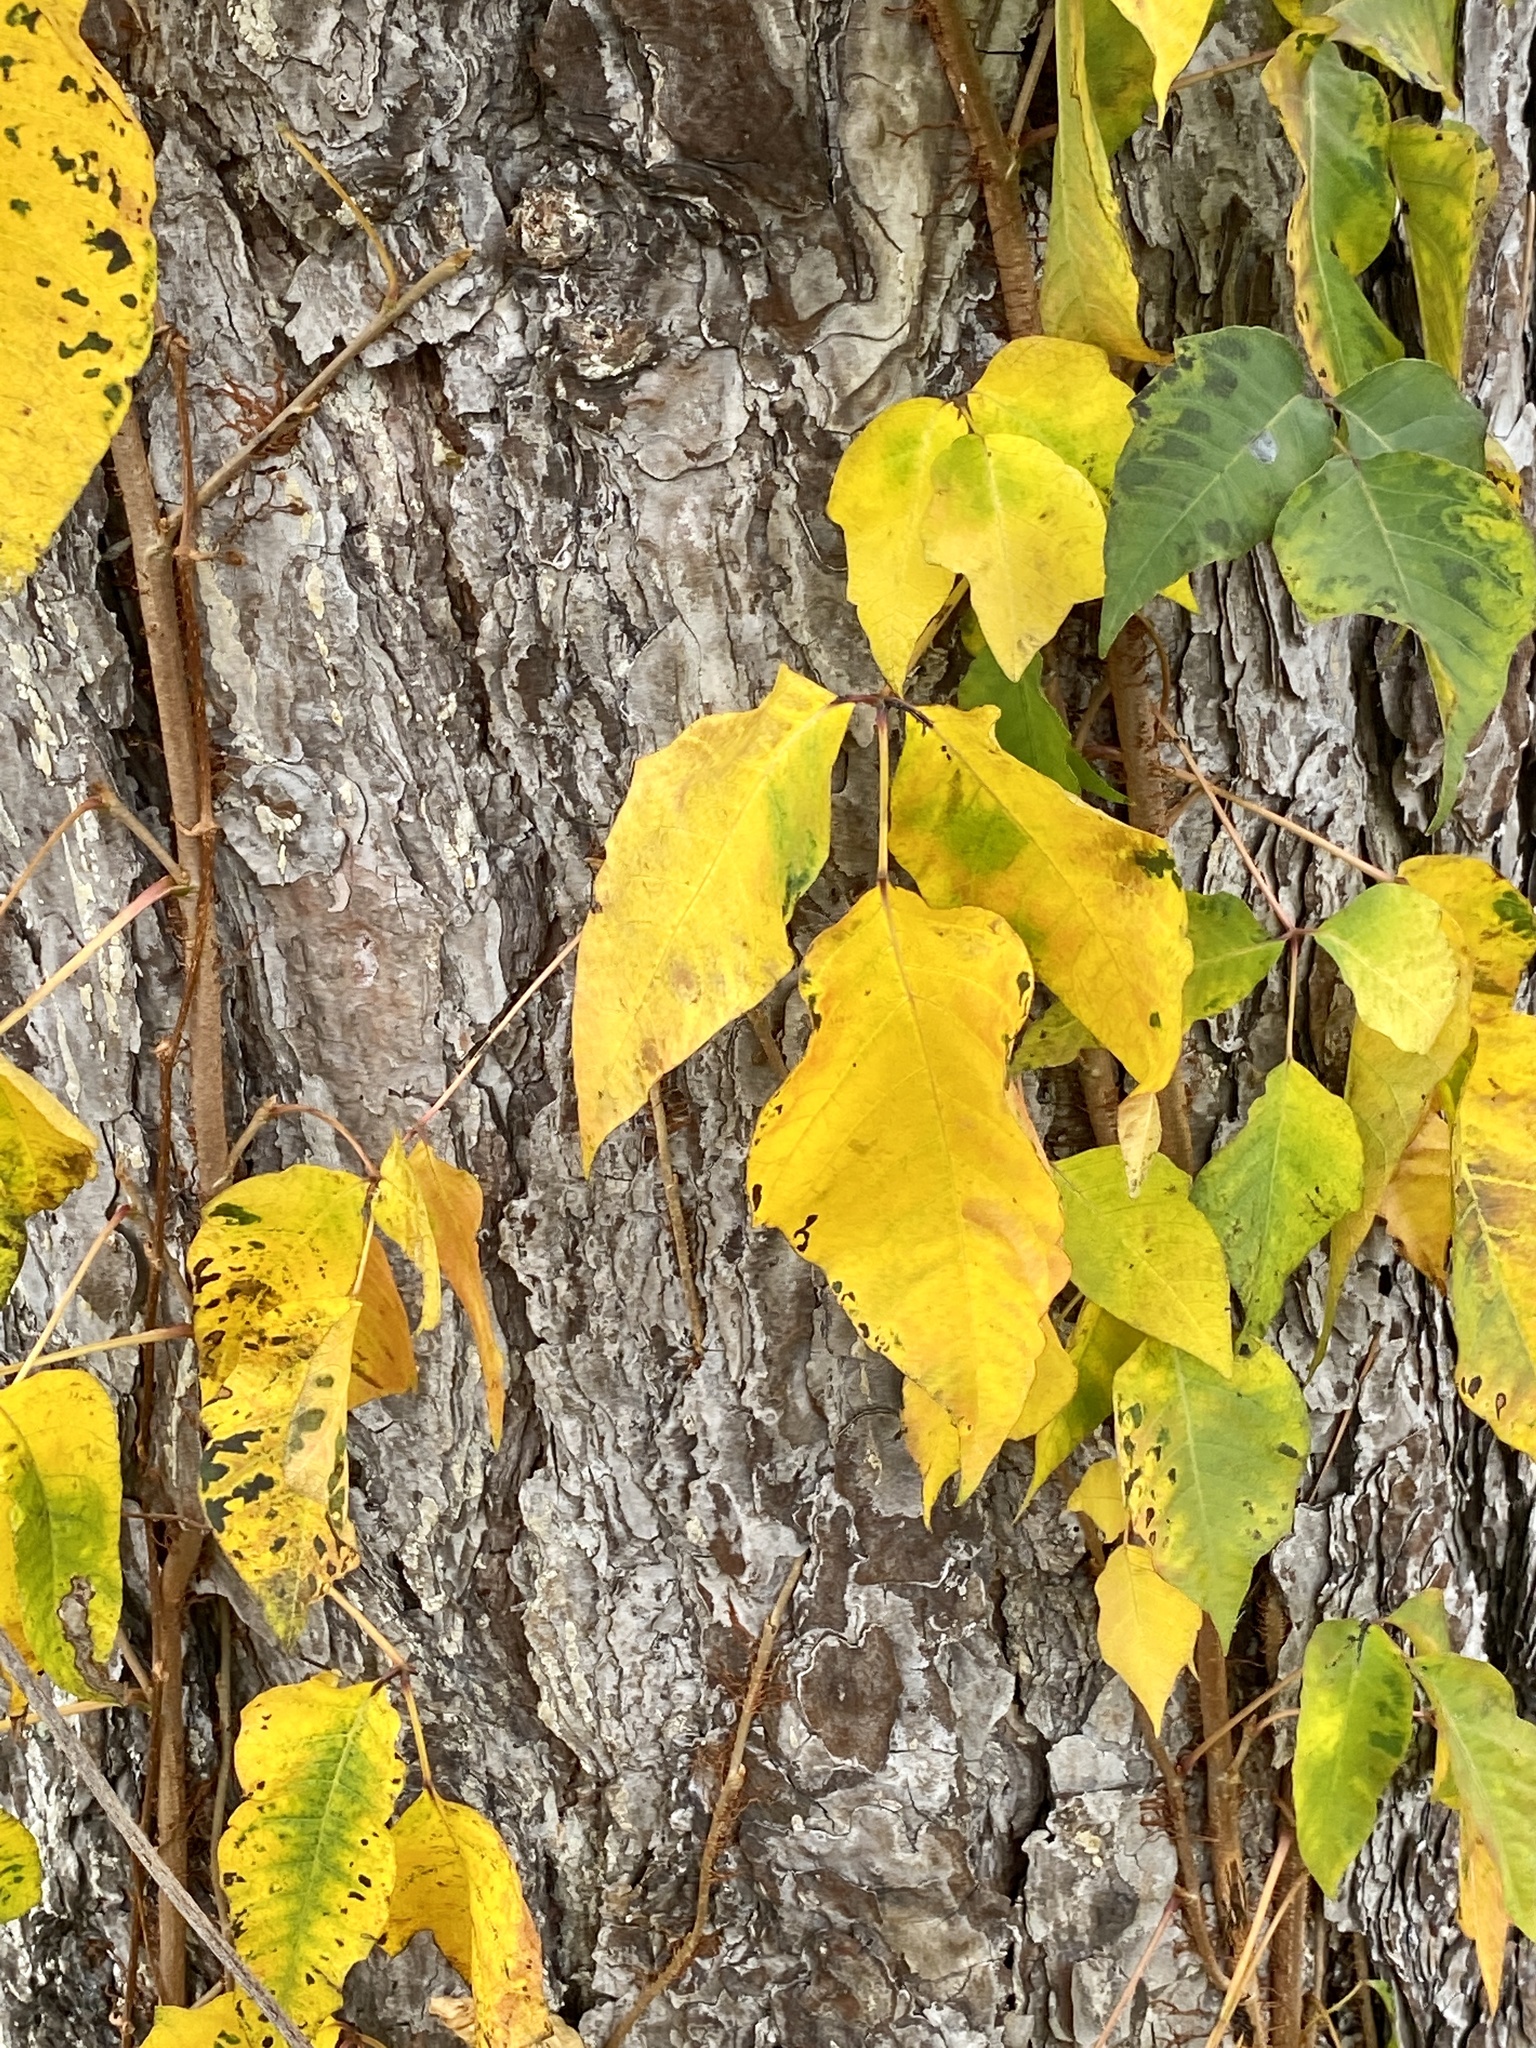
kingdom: Plantae
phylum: Tracheophyta
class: Magnoliopsida
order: Sapindales
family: Anacardiaceae
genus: Toxicodendron
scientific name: Toxicodendron radicans
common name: Poison ivy
